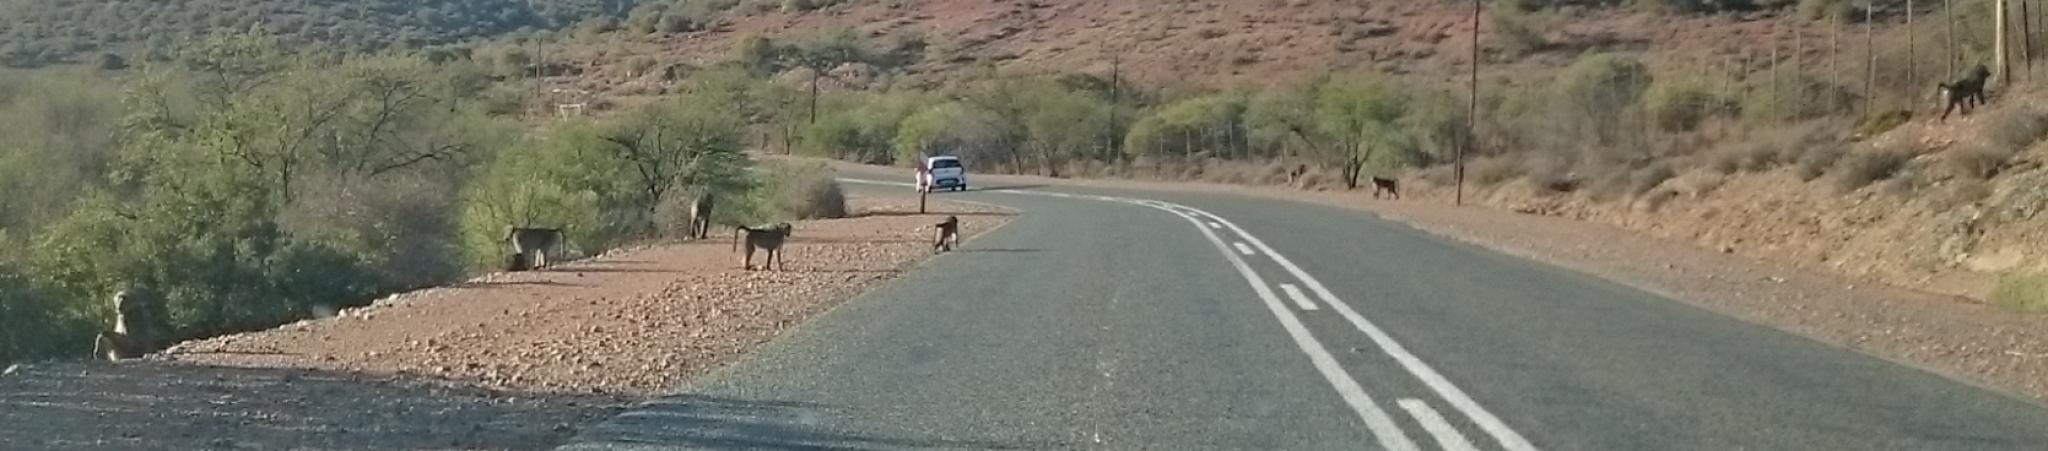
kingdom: Animalia
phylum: Chordata
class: Mammalia
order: Primates
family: Cercopithecidae
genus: Papio
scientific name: Papio ursinus
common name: Chacma baboon
